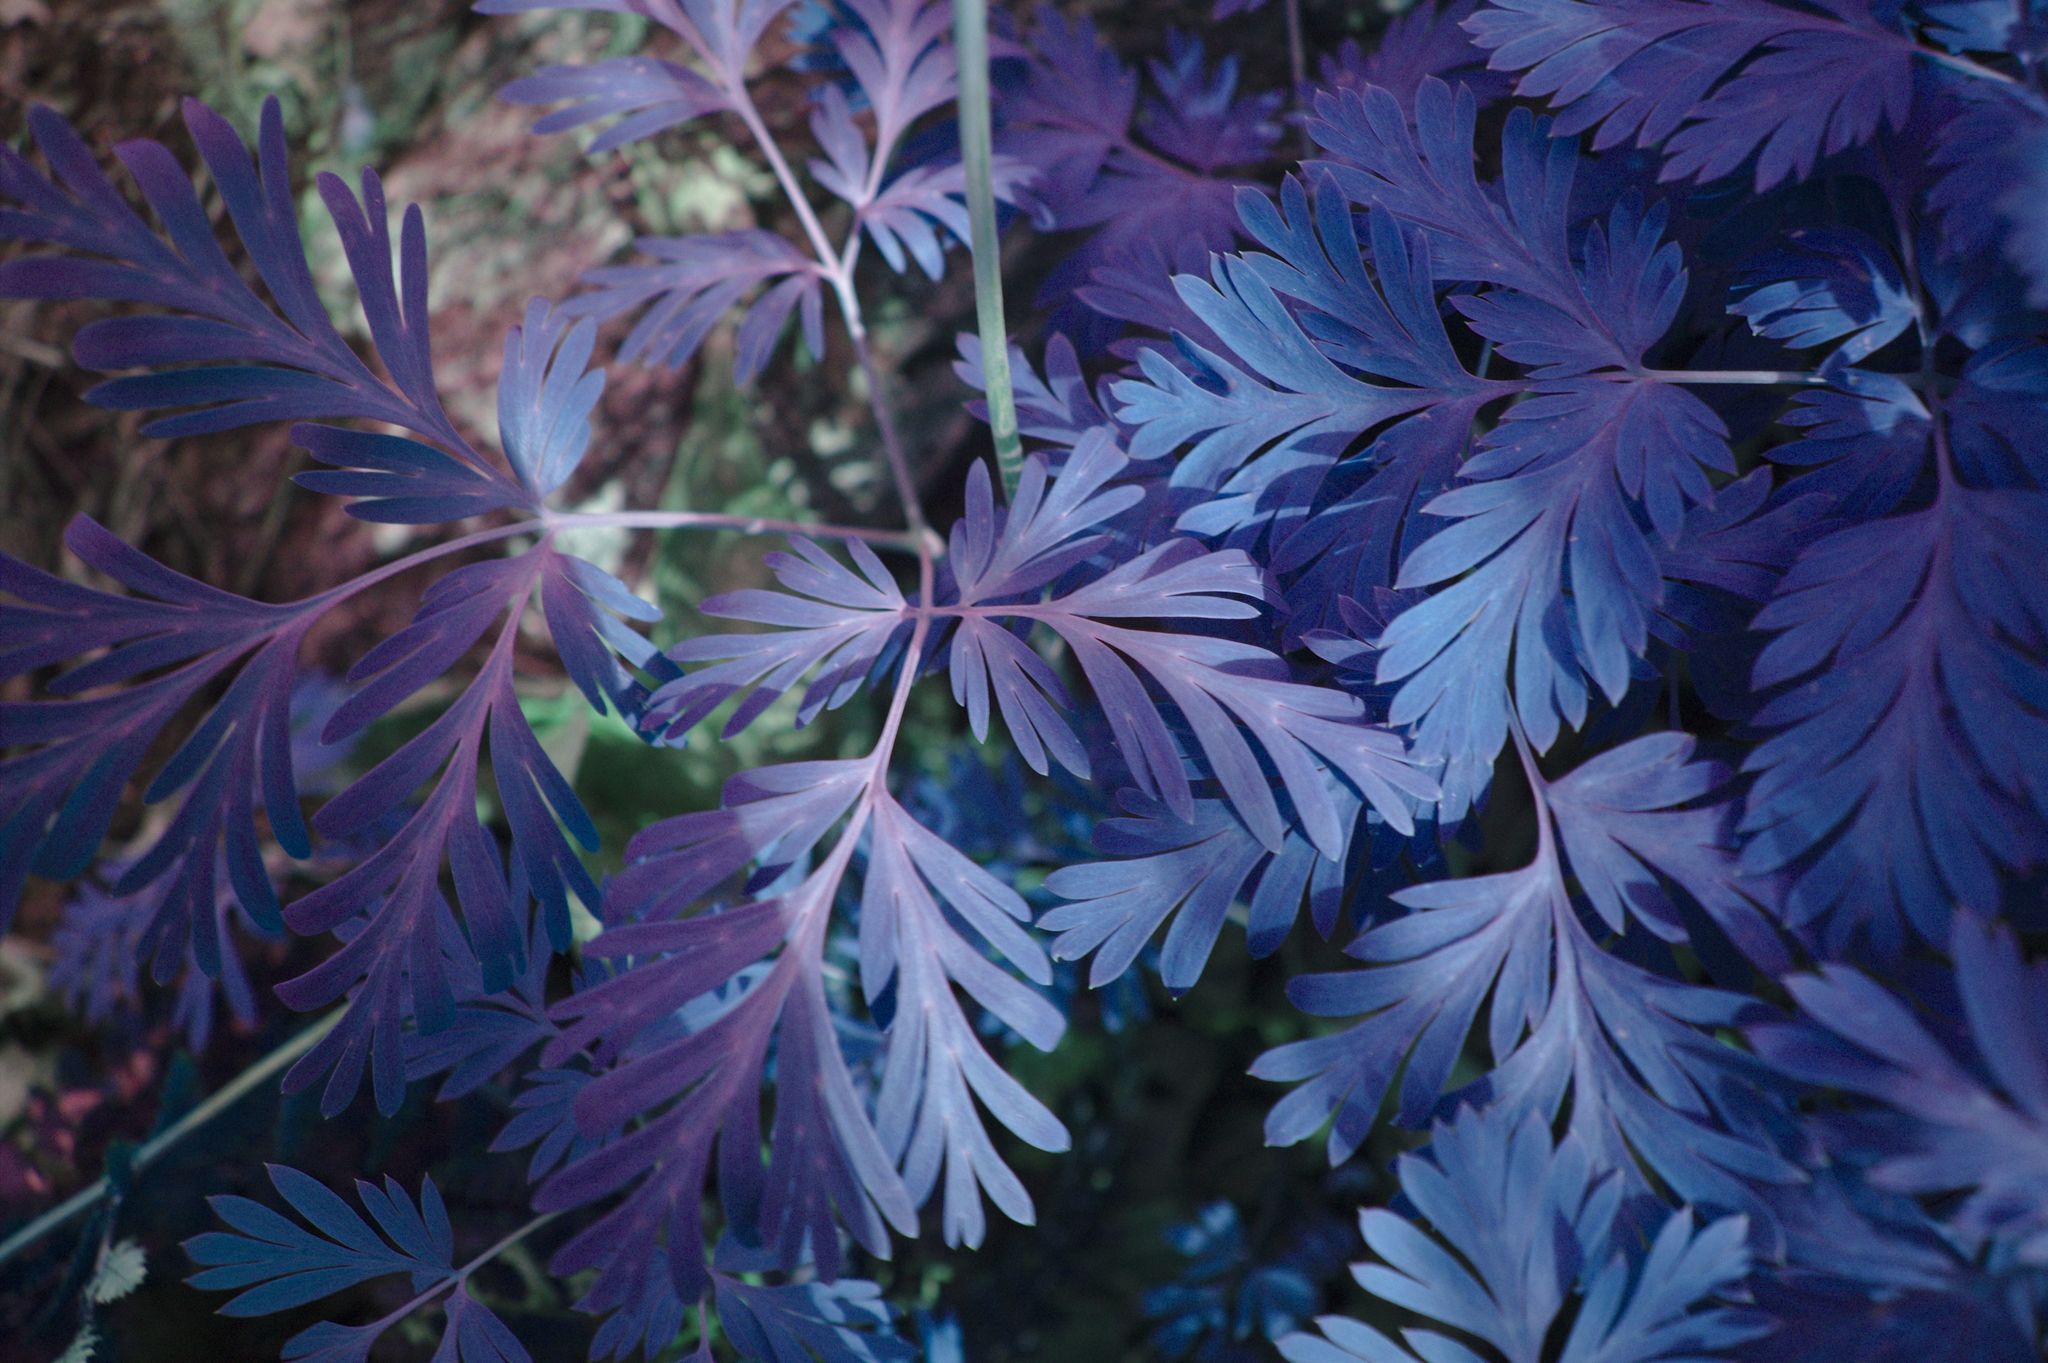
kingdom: Plantae
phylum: Tracheophyta
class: Magnoliopsida
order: Ranunculales
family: Papaveraceae
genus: Dicentra
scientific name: Dicentra canadensis
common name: Squirrel-corn
